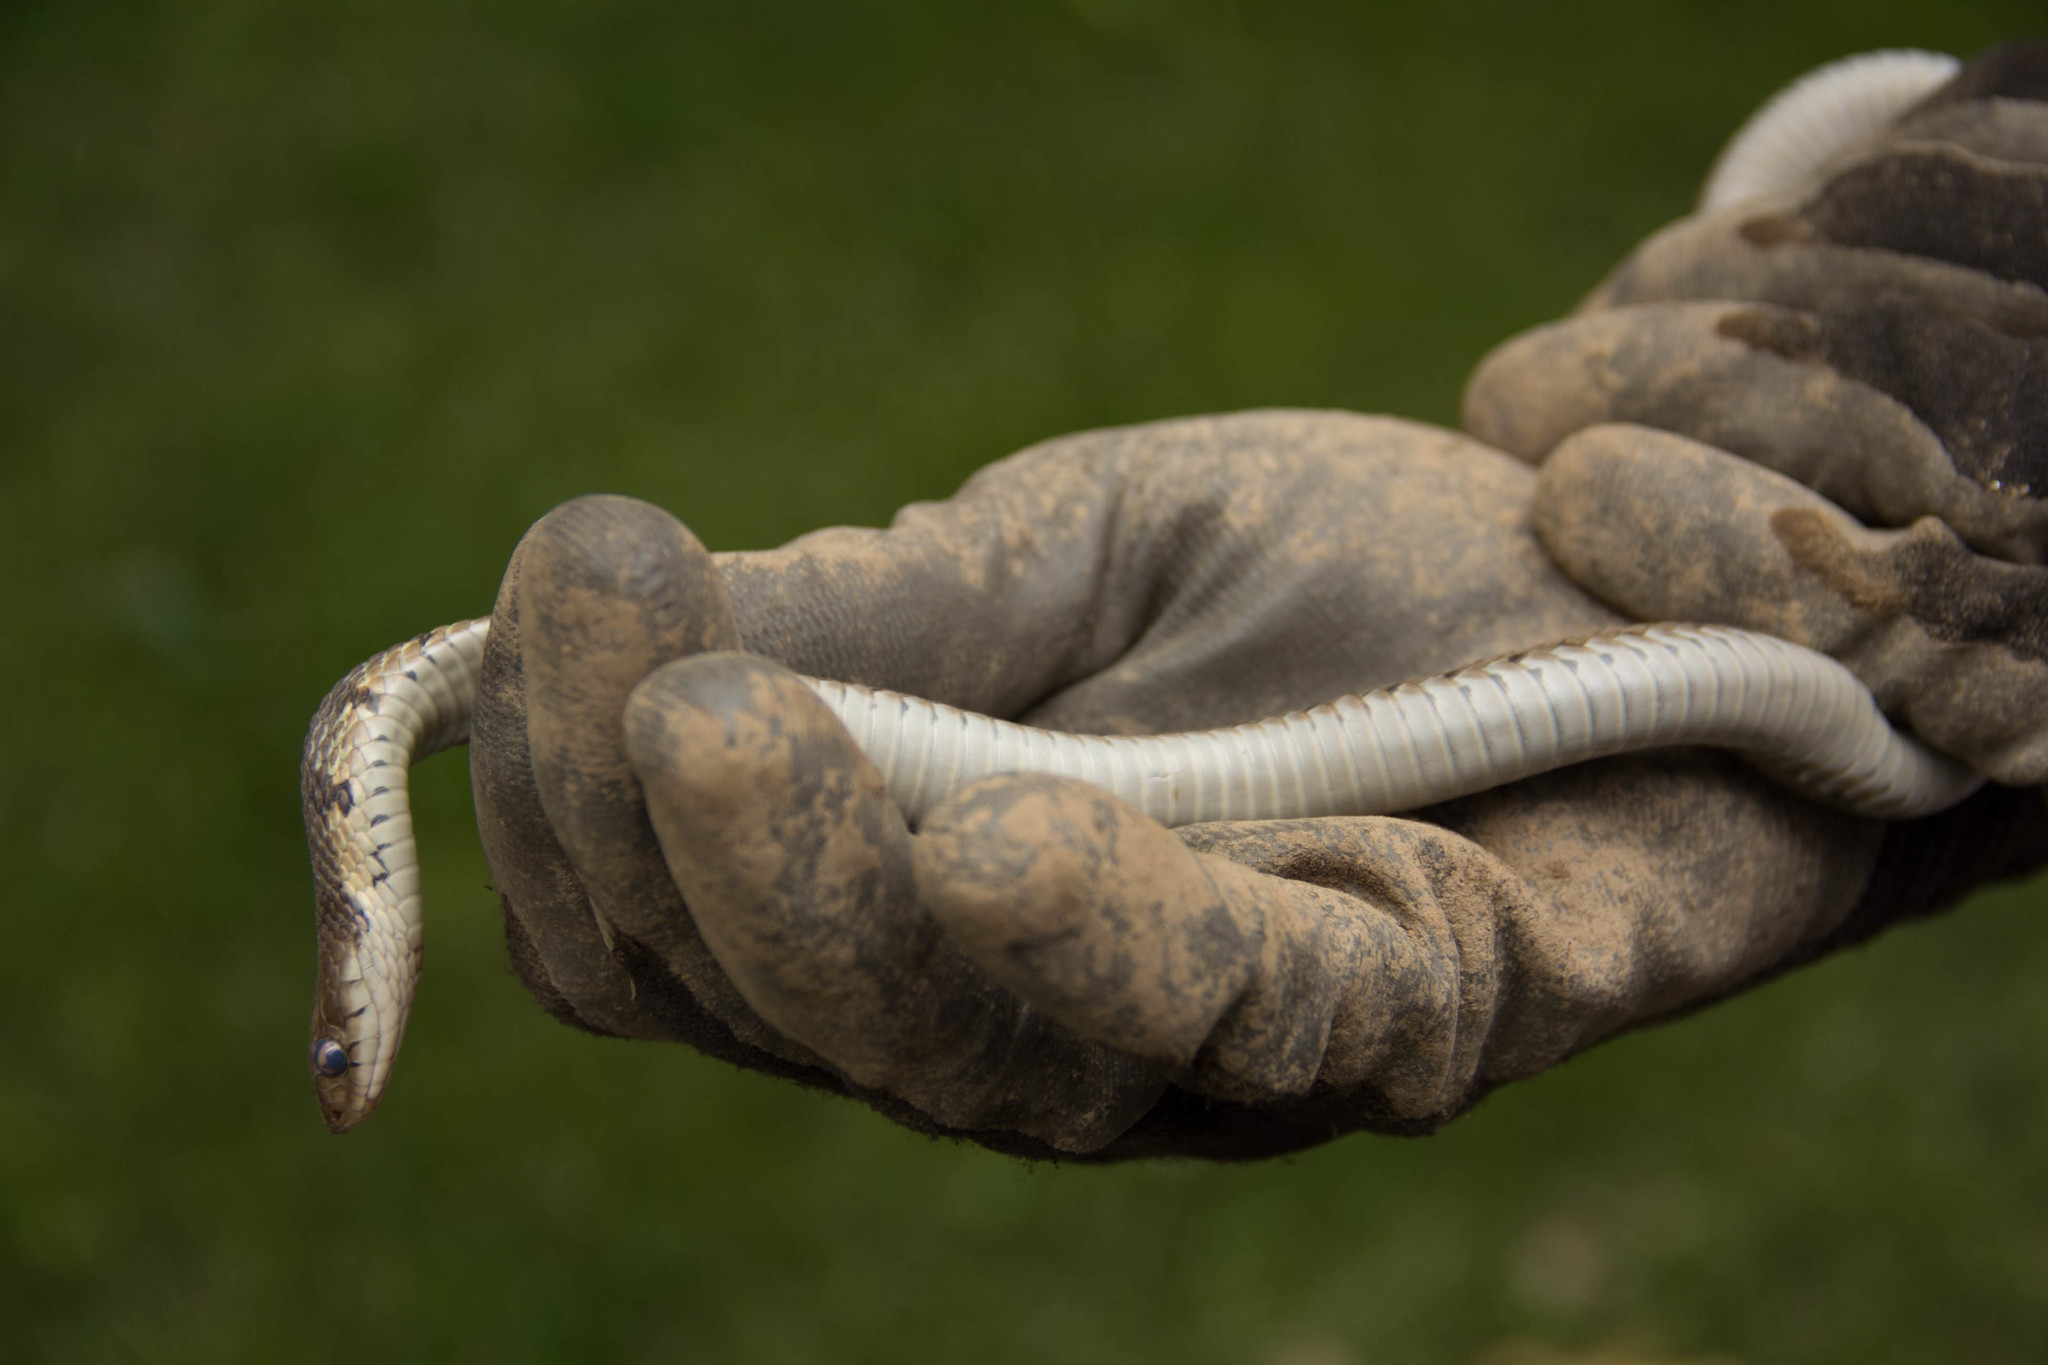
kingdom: Animalia
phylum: Chordata
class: Squamata
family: Colubridae
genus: Thamnophis
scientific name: Thamnophis sirtalis
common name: Common garter snake
